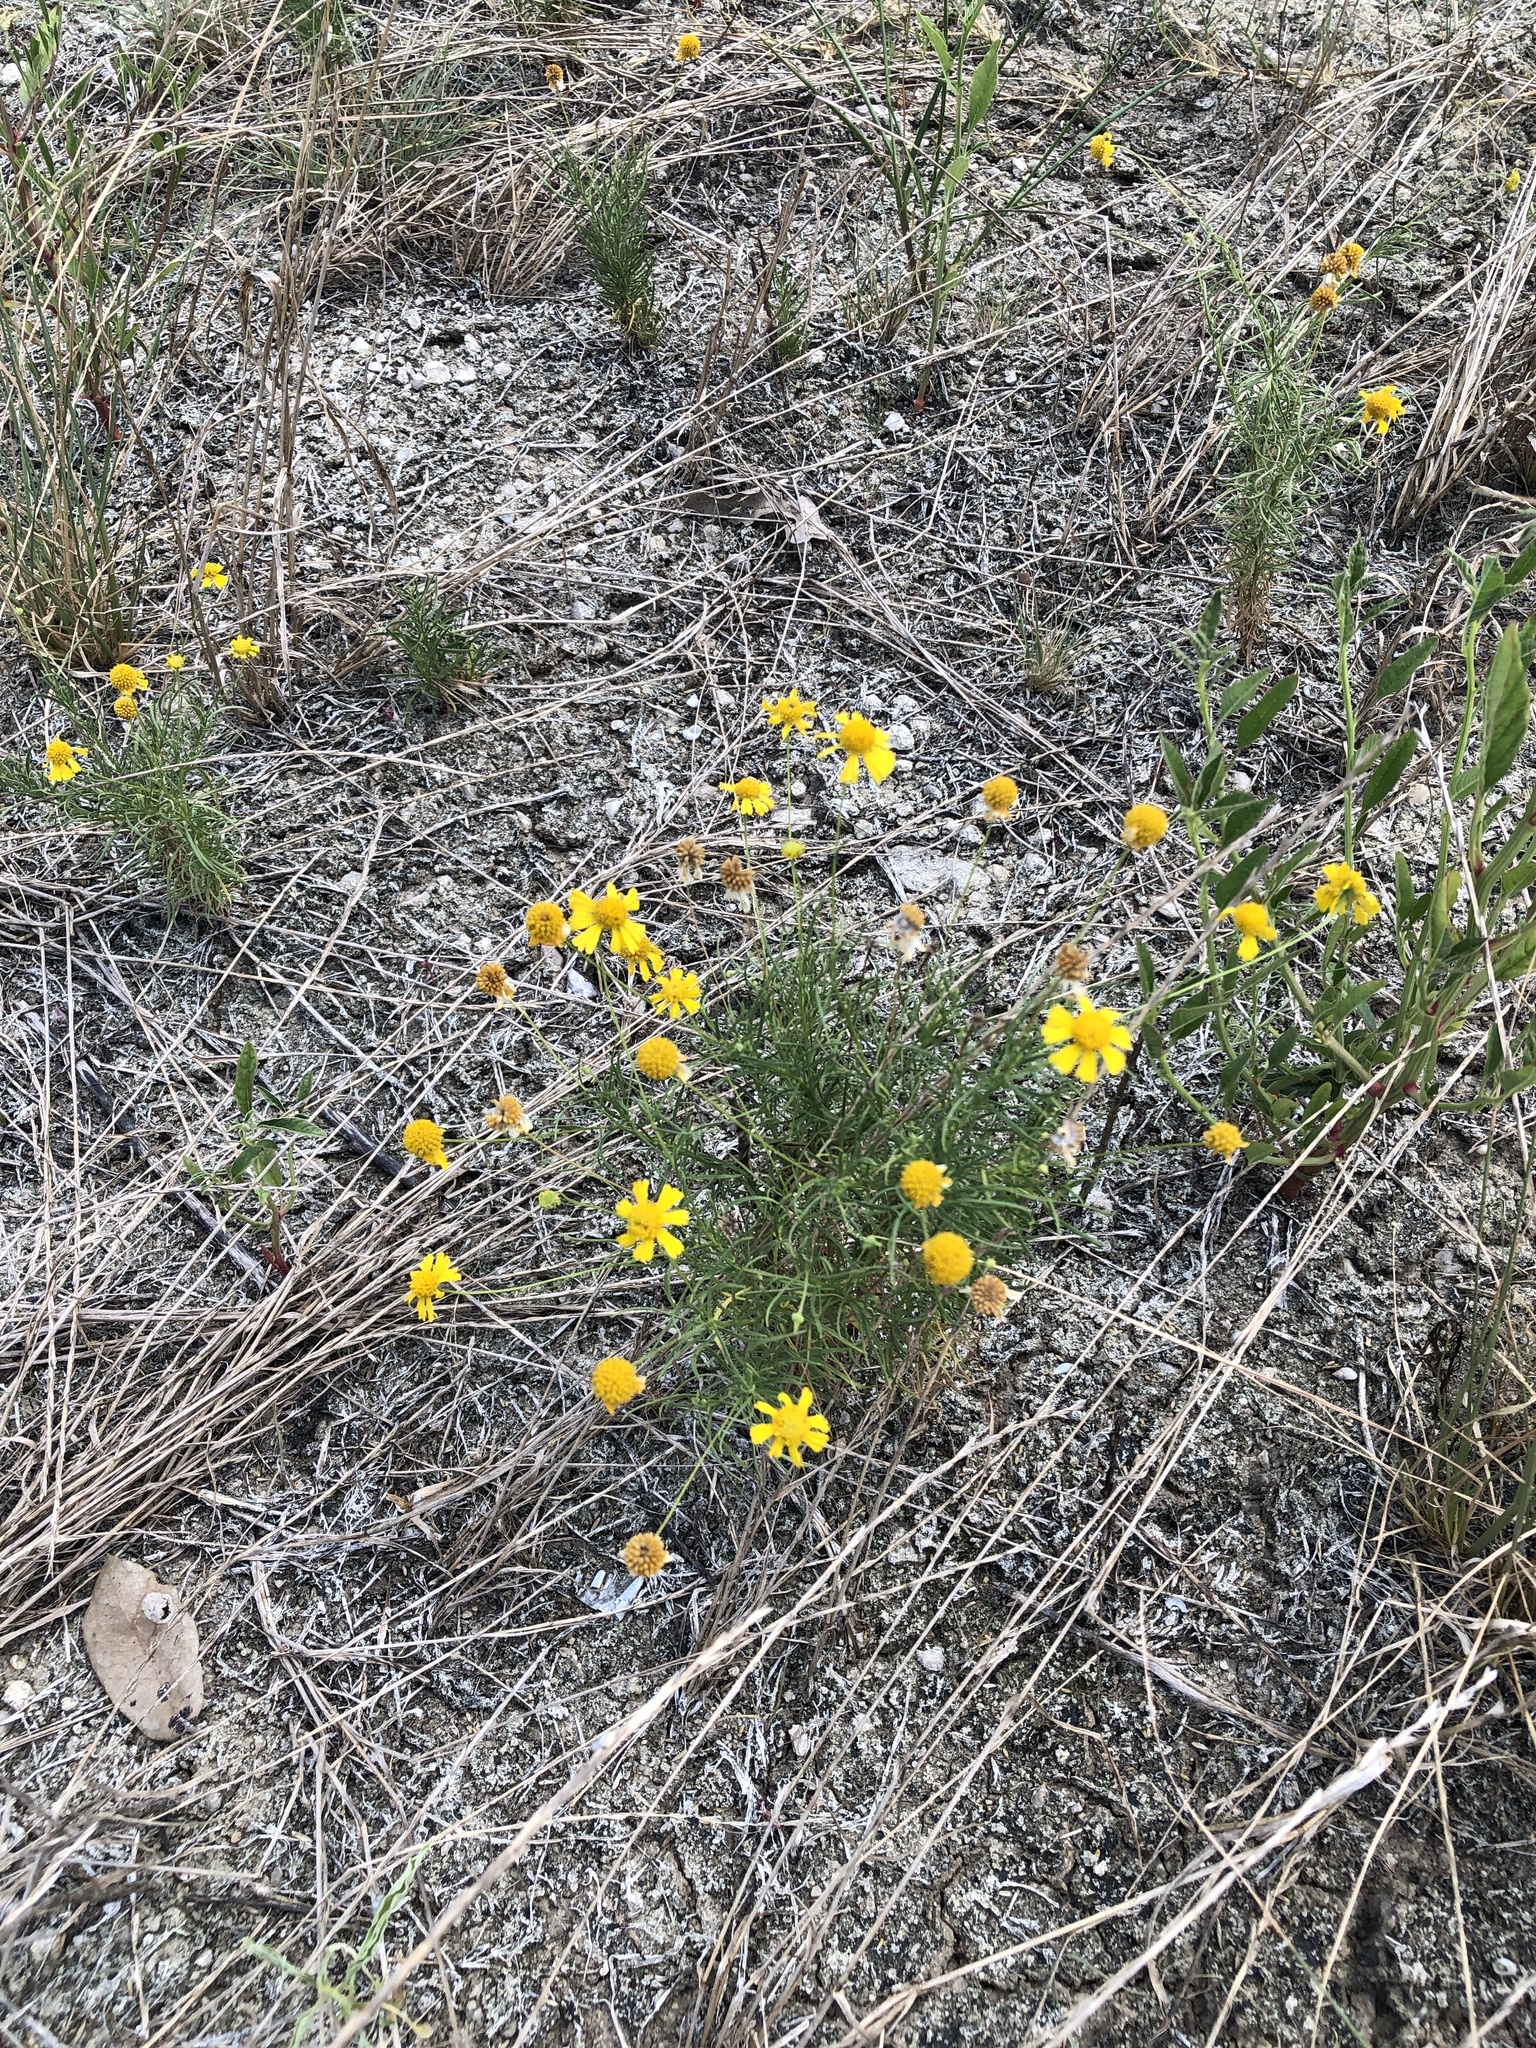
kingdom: Plantae
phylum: Tracheophyta
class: Magnoliopsida
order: Asterales
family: Asteraceae
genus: Helenium
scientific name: Helenium amarum
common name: Bitter sneezeweed
